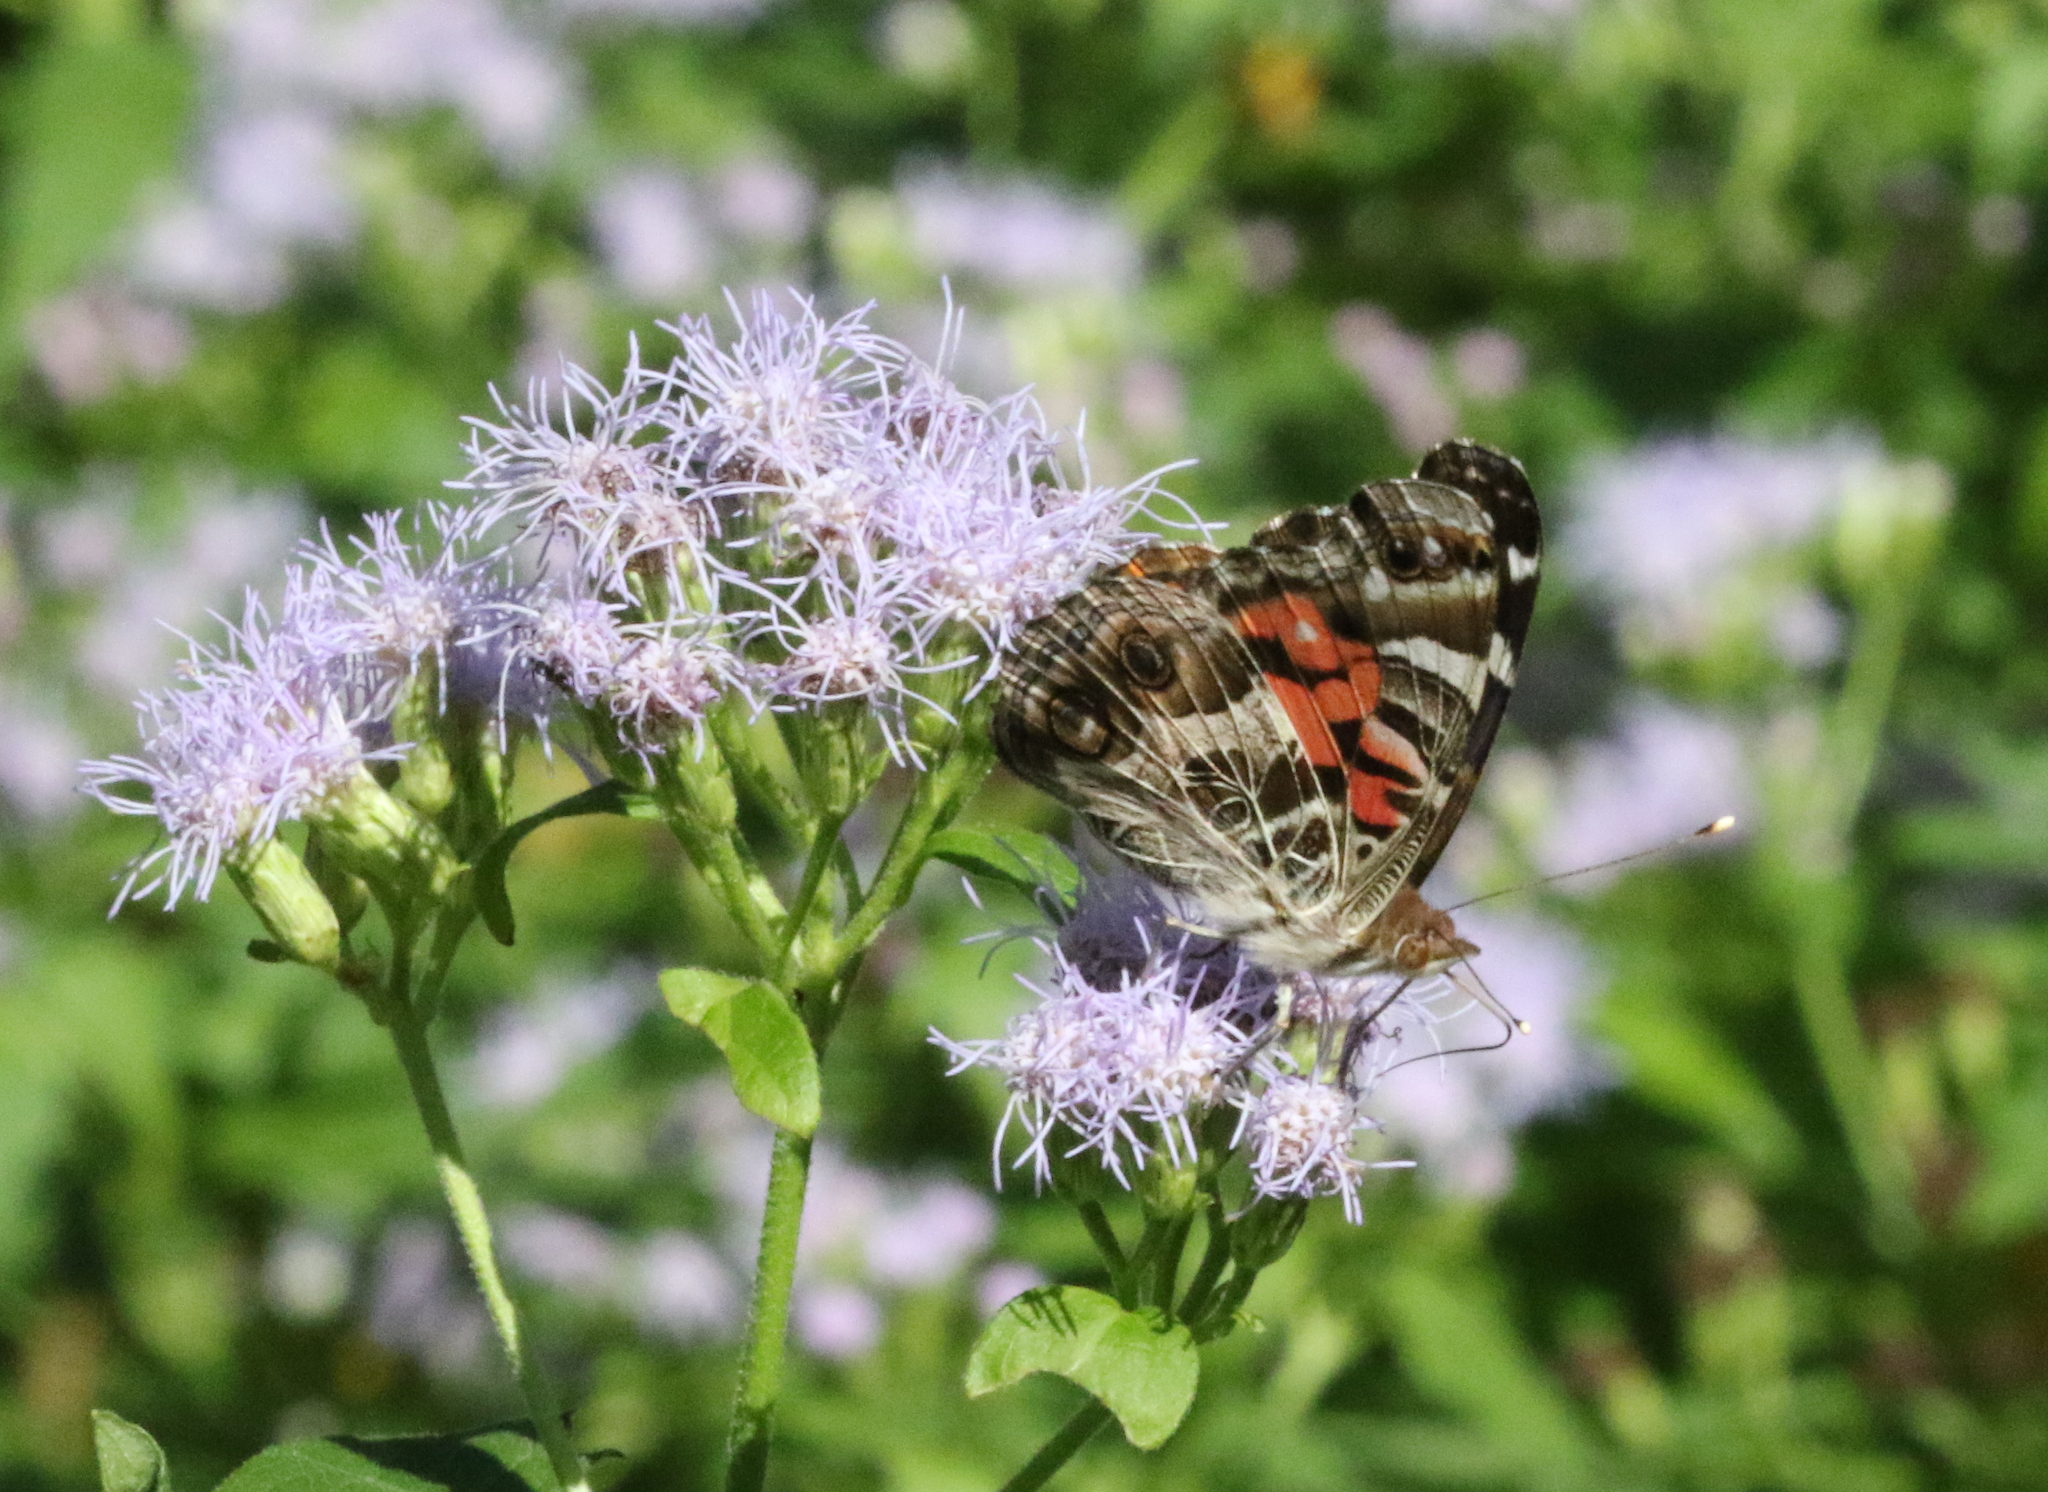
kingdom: Animalia
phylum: Arthropoda
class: Insecta
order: Lepidoptera
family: Nymphalidae
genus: Vanessa
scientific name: Vanessa virginiensis
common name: American lady
